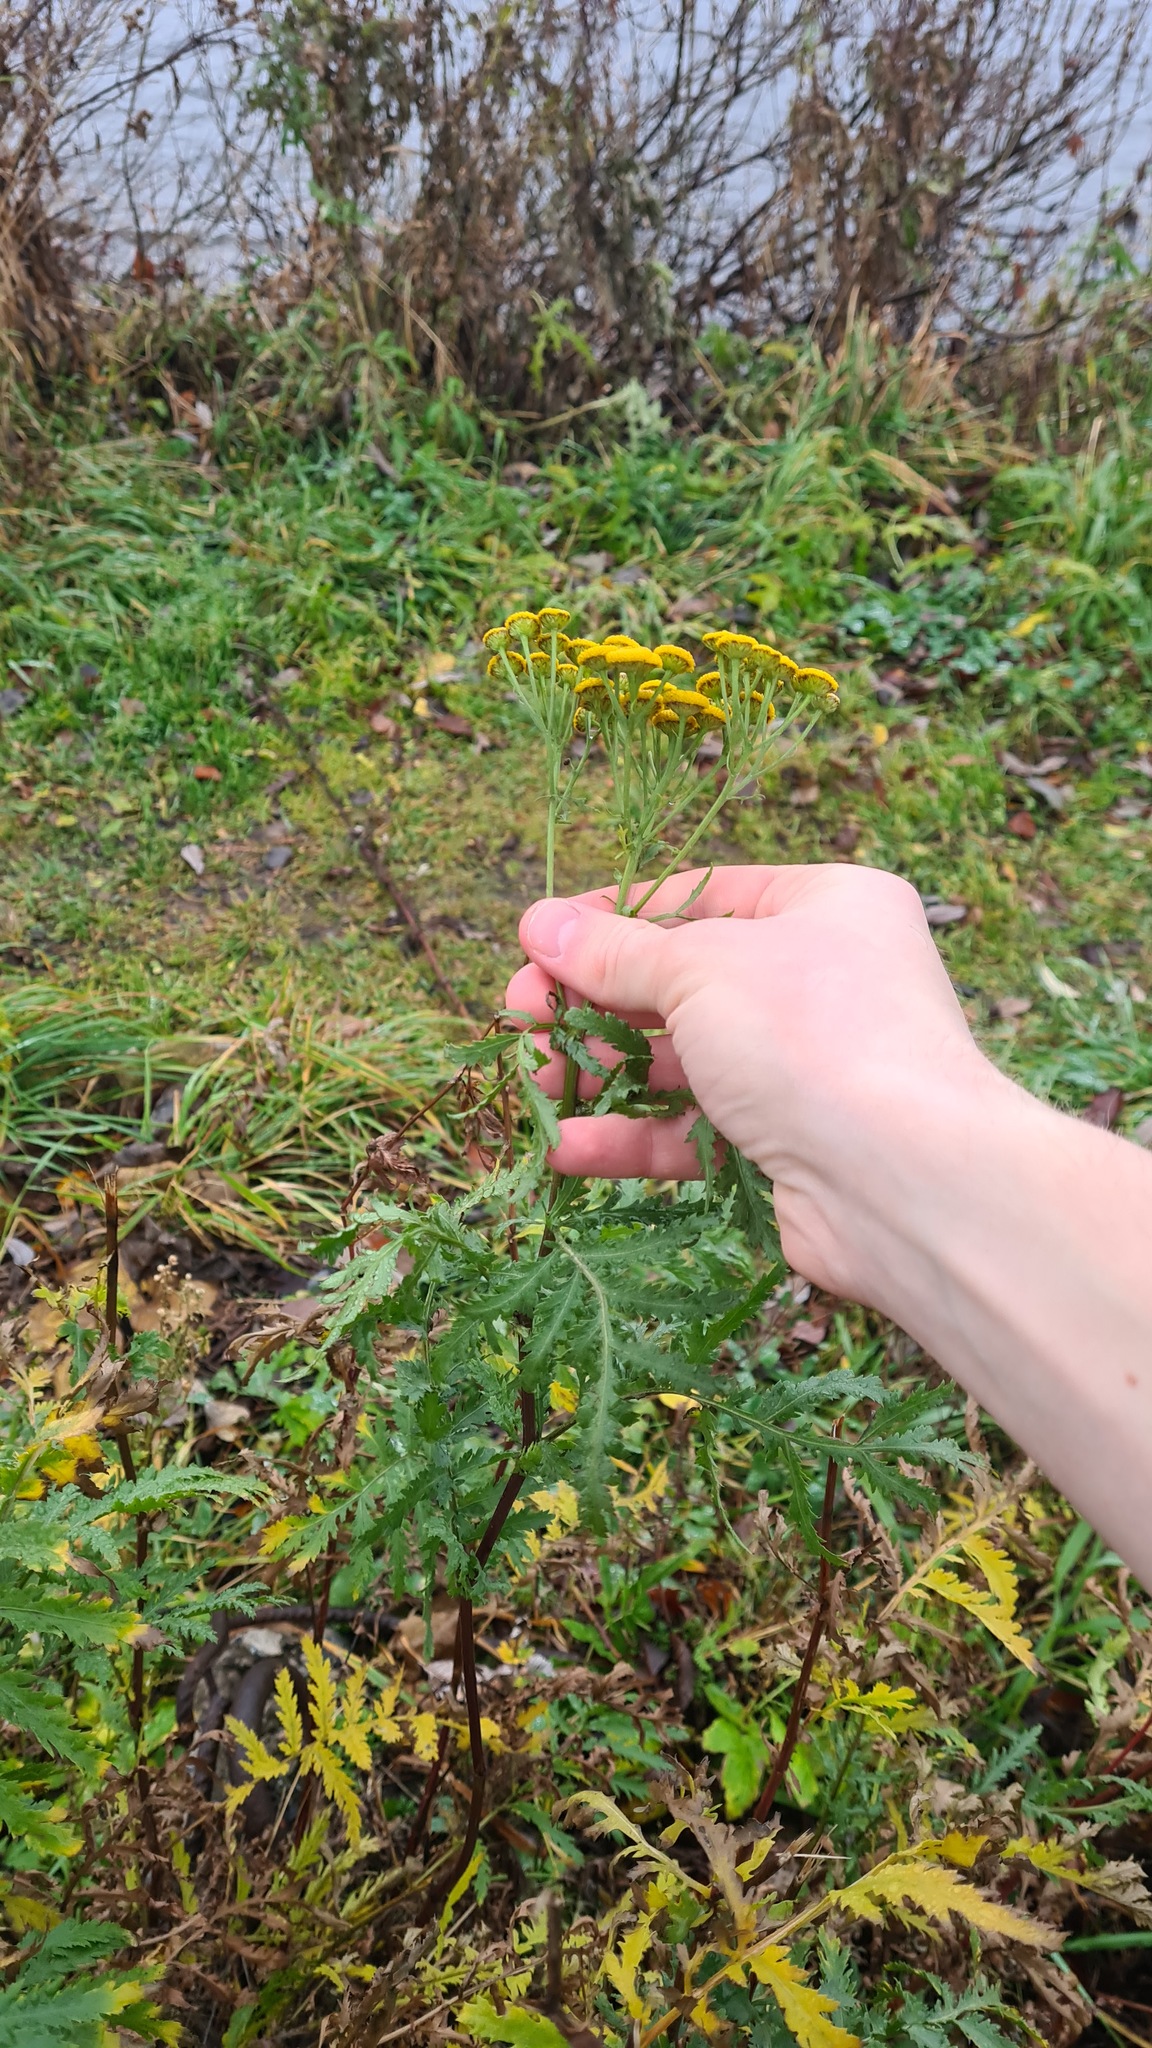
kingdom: Plantae
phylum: Tracheophyta
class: Magnoliopsida
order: Asterales
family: Asteraceae
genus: Tanacetum
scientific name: Tanacetum vulgare
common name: Common tansy
